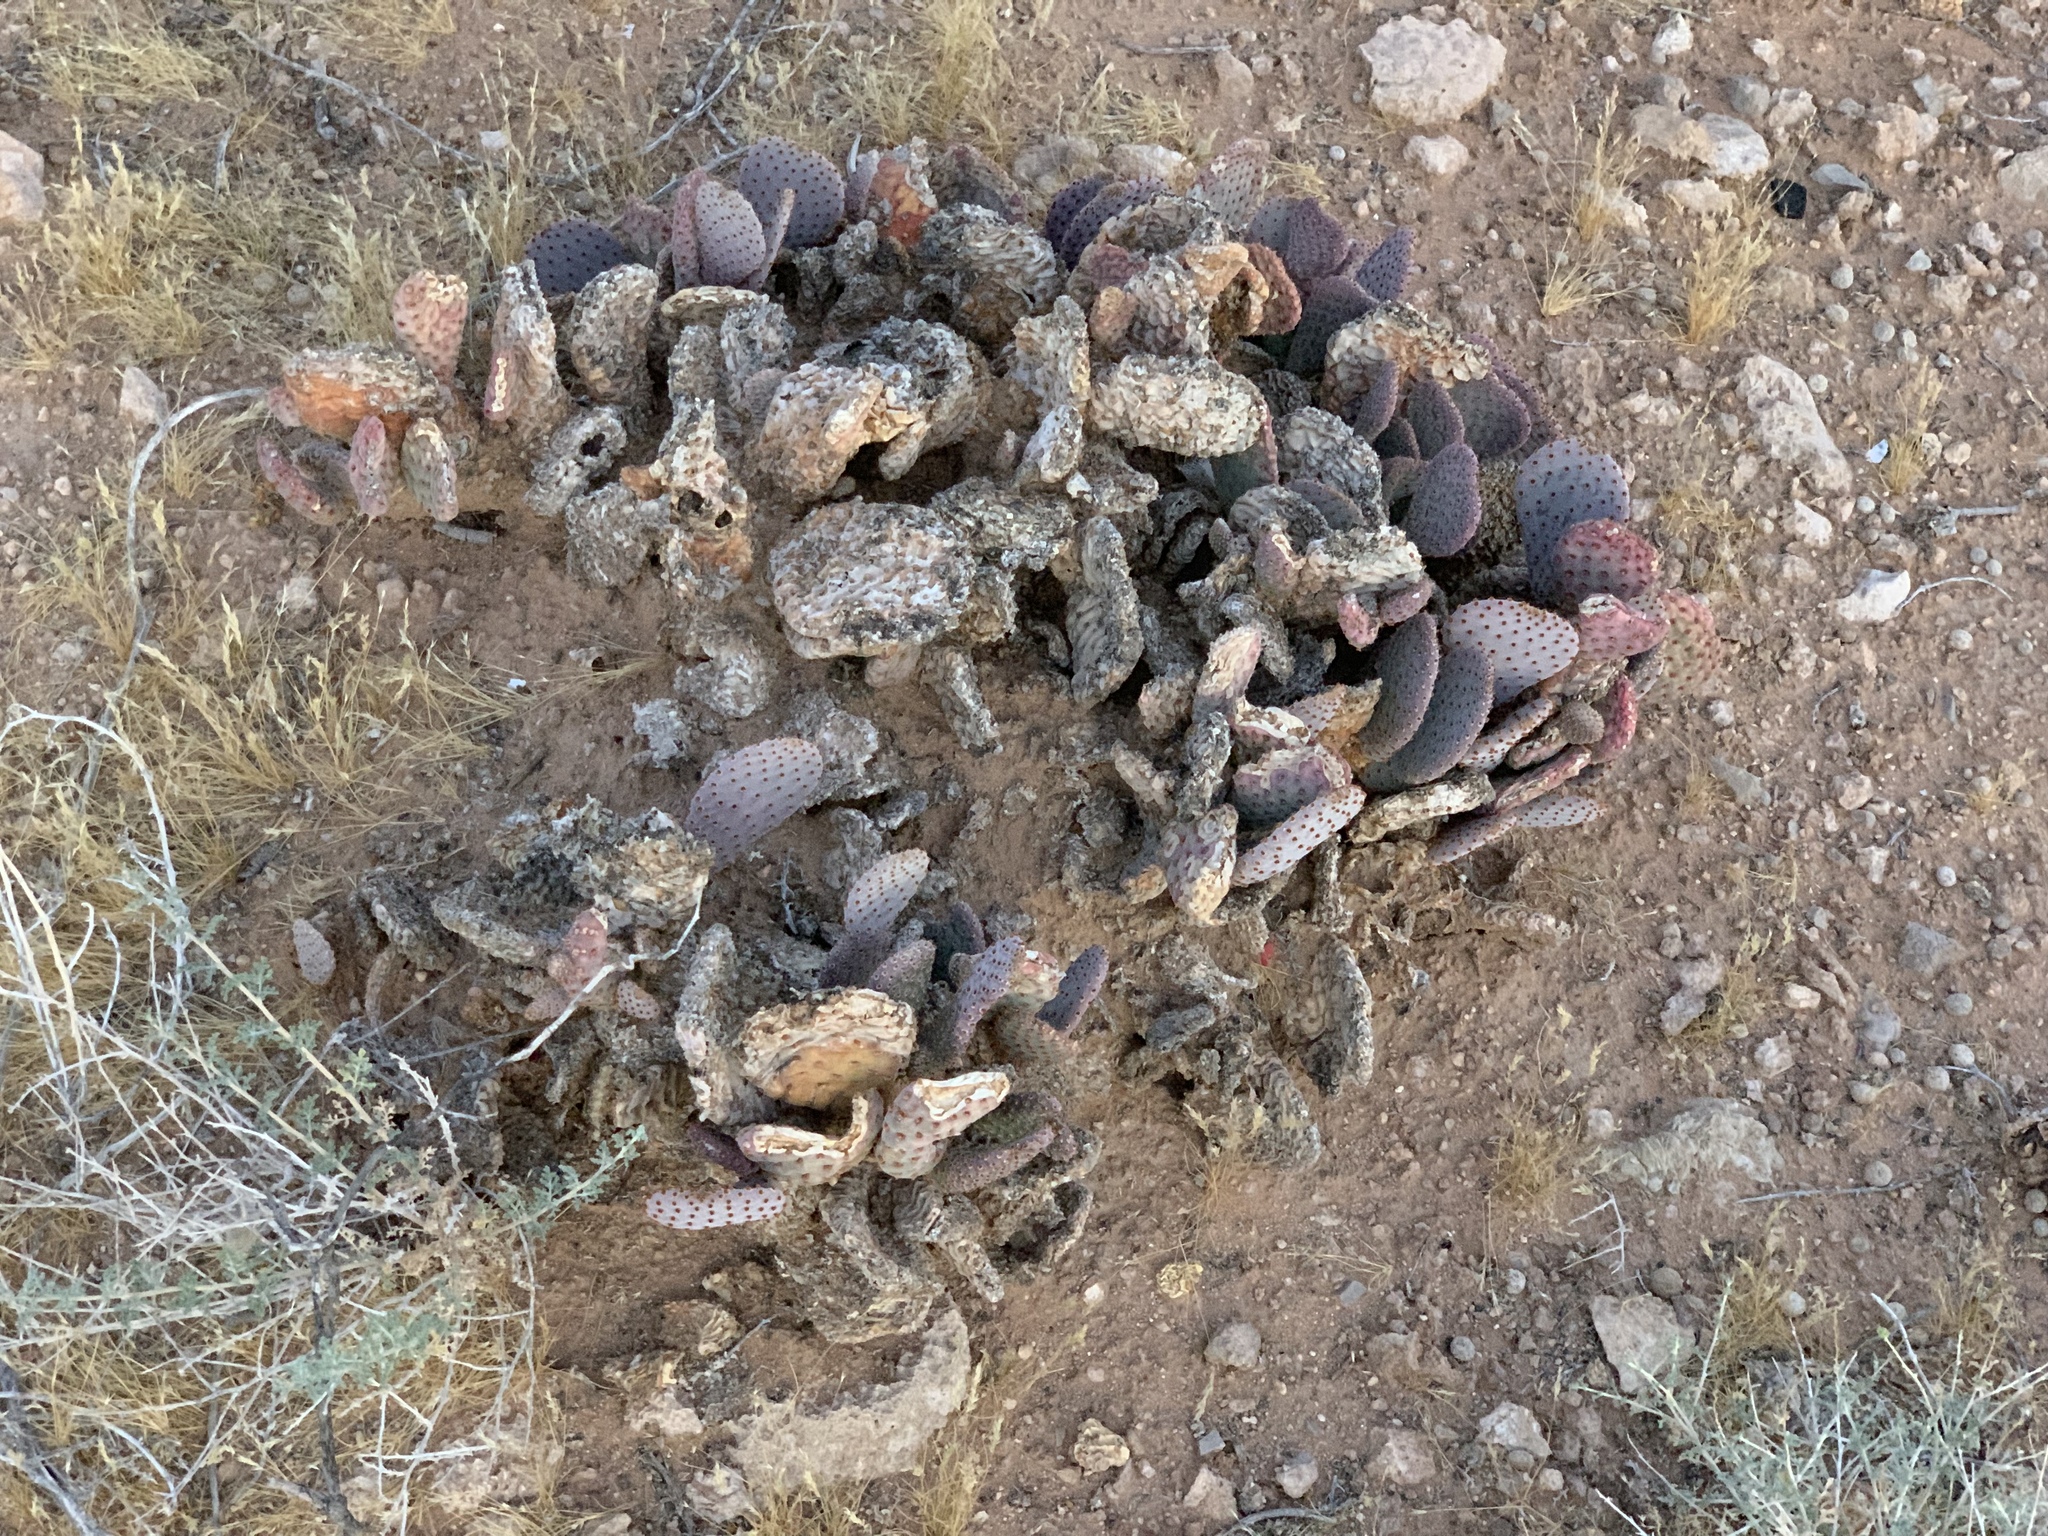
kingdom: Plantae
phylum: Tracheophyta
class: Magnoliopsida
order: Caryophyllales
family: Cactaceae
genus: Opuntia
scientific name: Opuntia basilaris
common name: Beavertail prickly-pear
